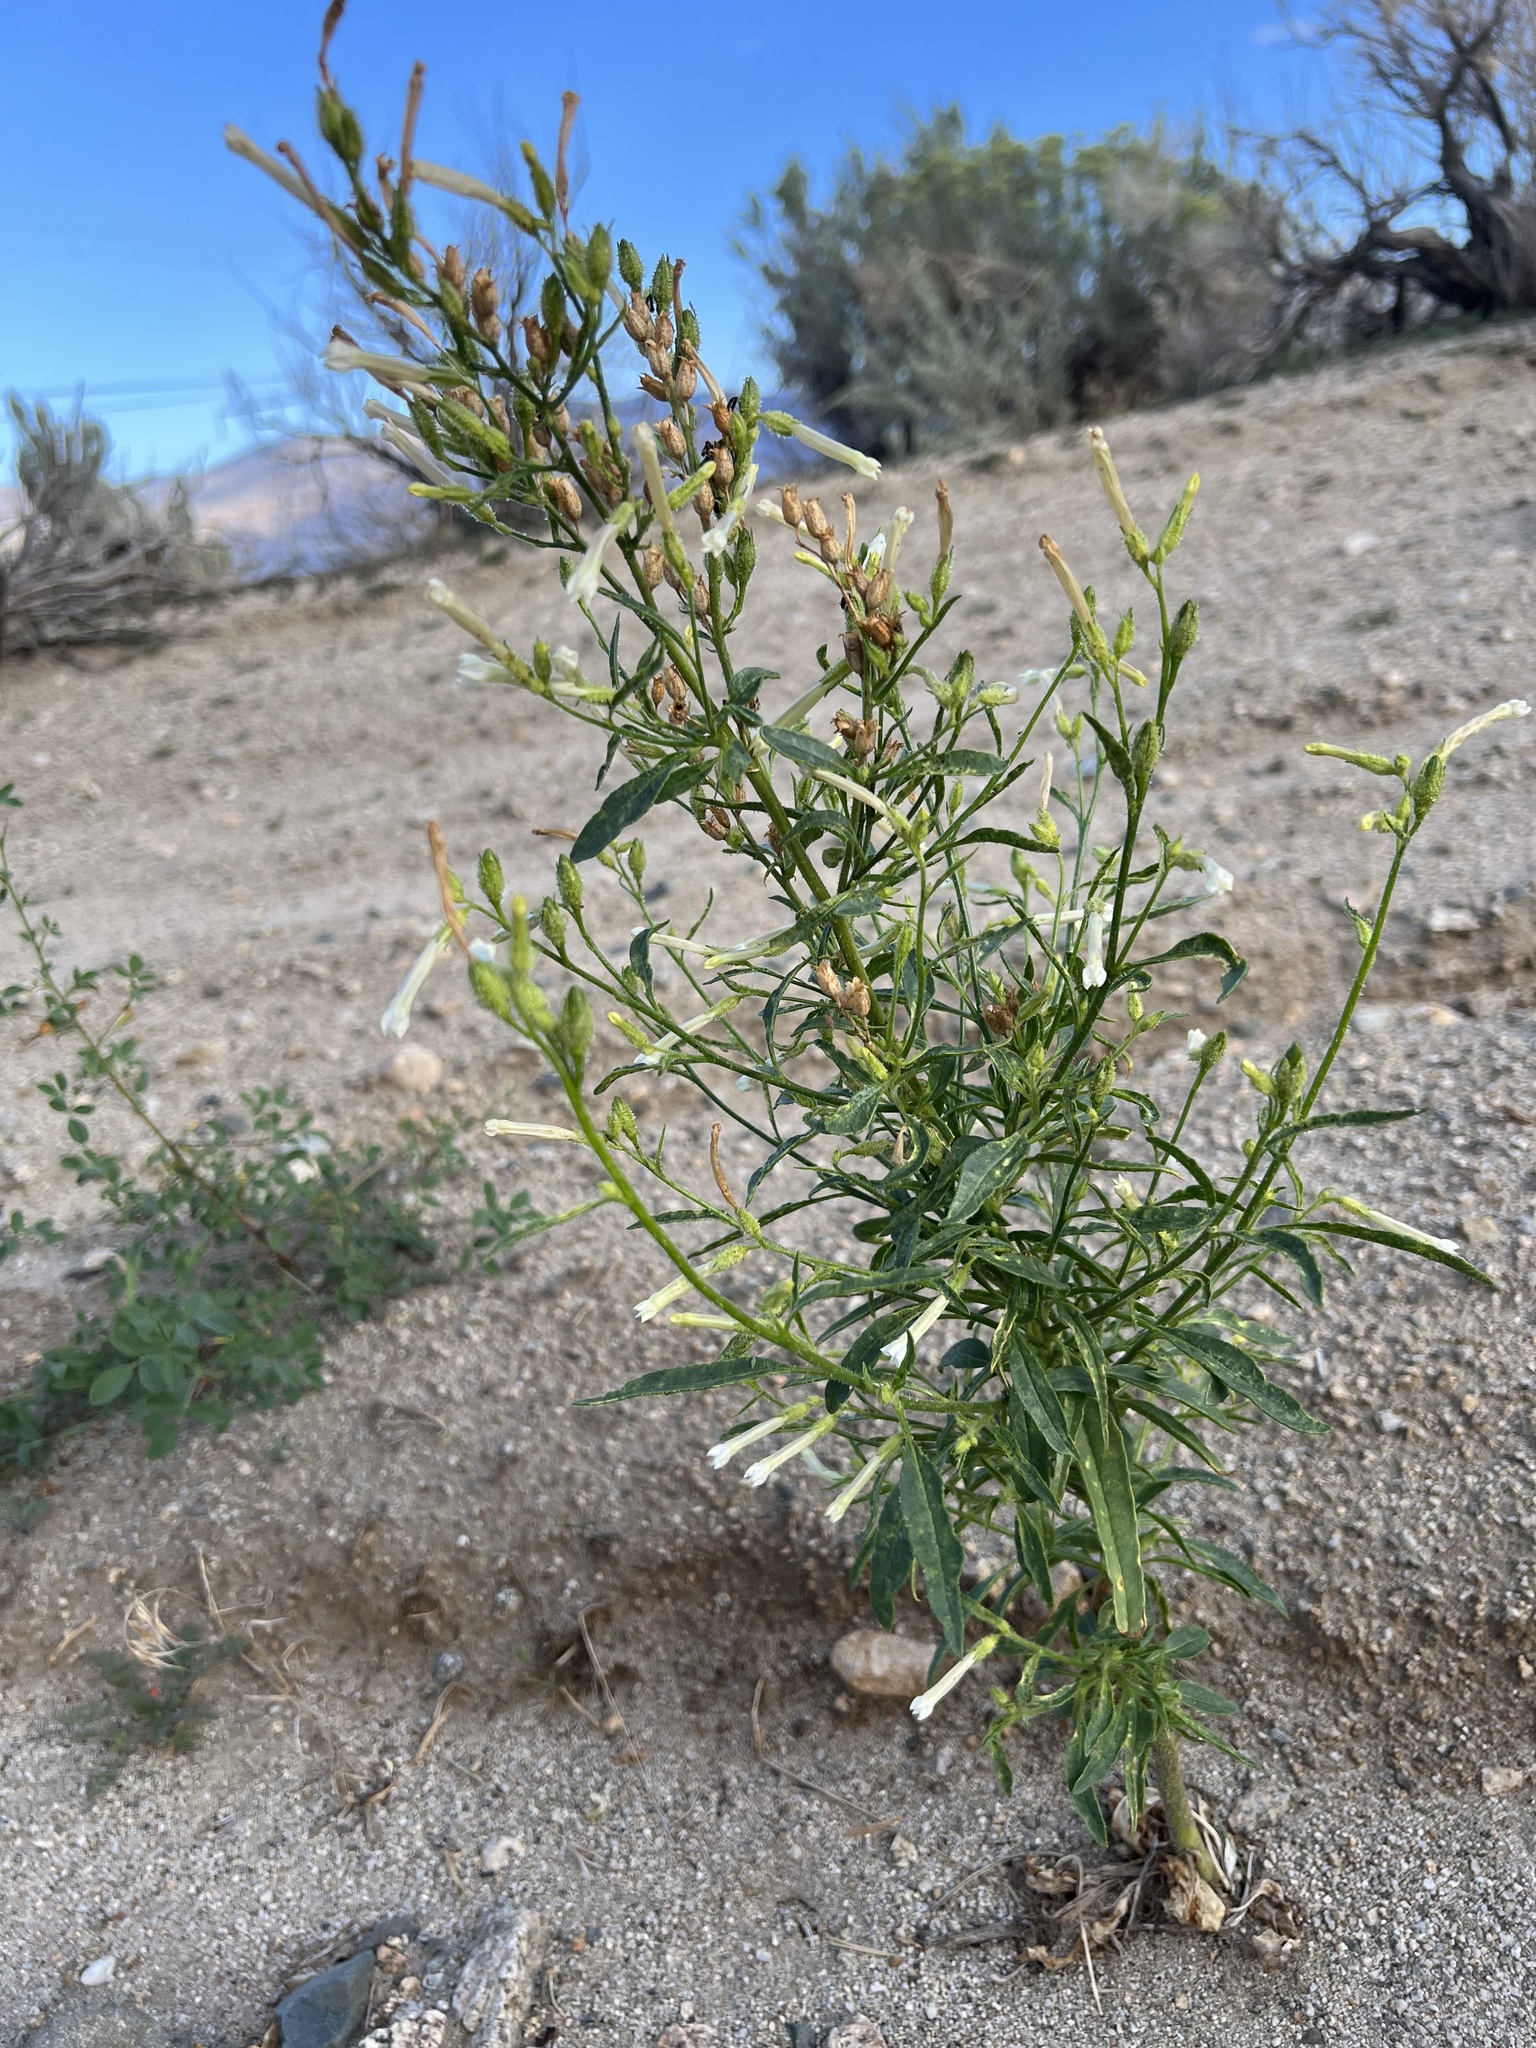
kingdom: Plantae
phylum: Tracheophyta
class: Magnoliopsida
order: Solanales
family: Solanaceae
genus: Nicotiana
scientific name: Nicotiana attenuata
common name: Coyote tobacco
